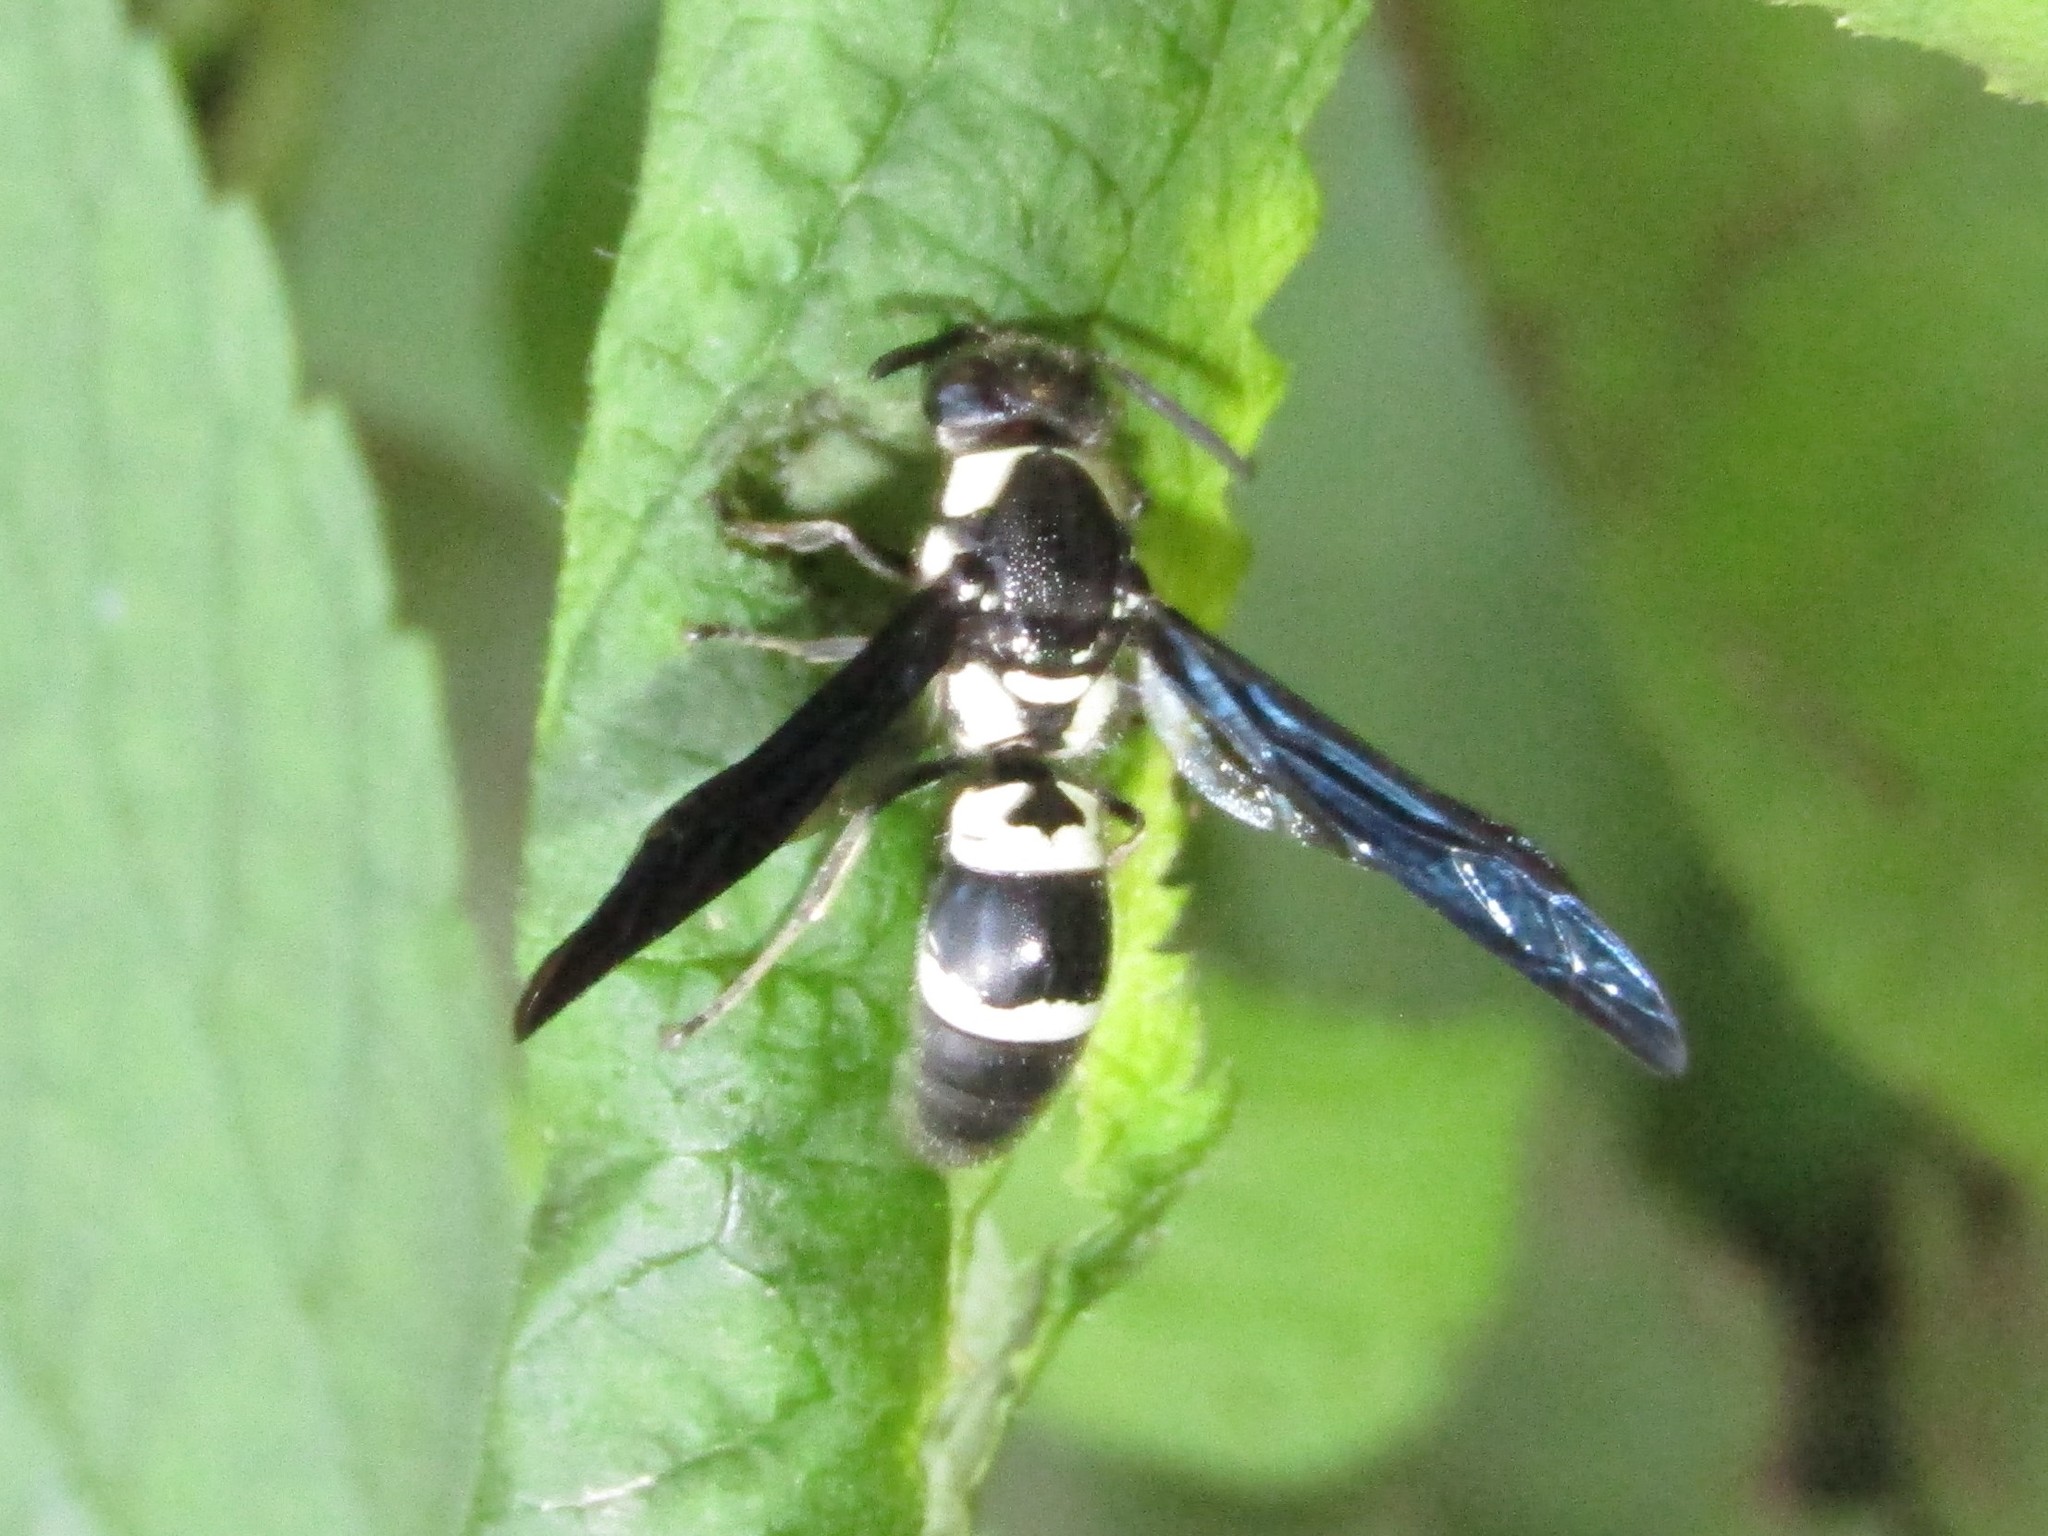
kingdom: Animalia
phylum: Arthropoda
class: Insecta
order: Hymenoptera
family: Eumenidae
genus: Pseudodynerus
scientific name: Pseudodynerus quadrisectus
